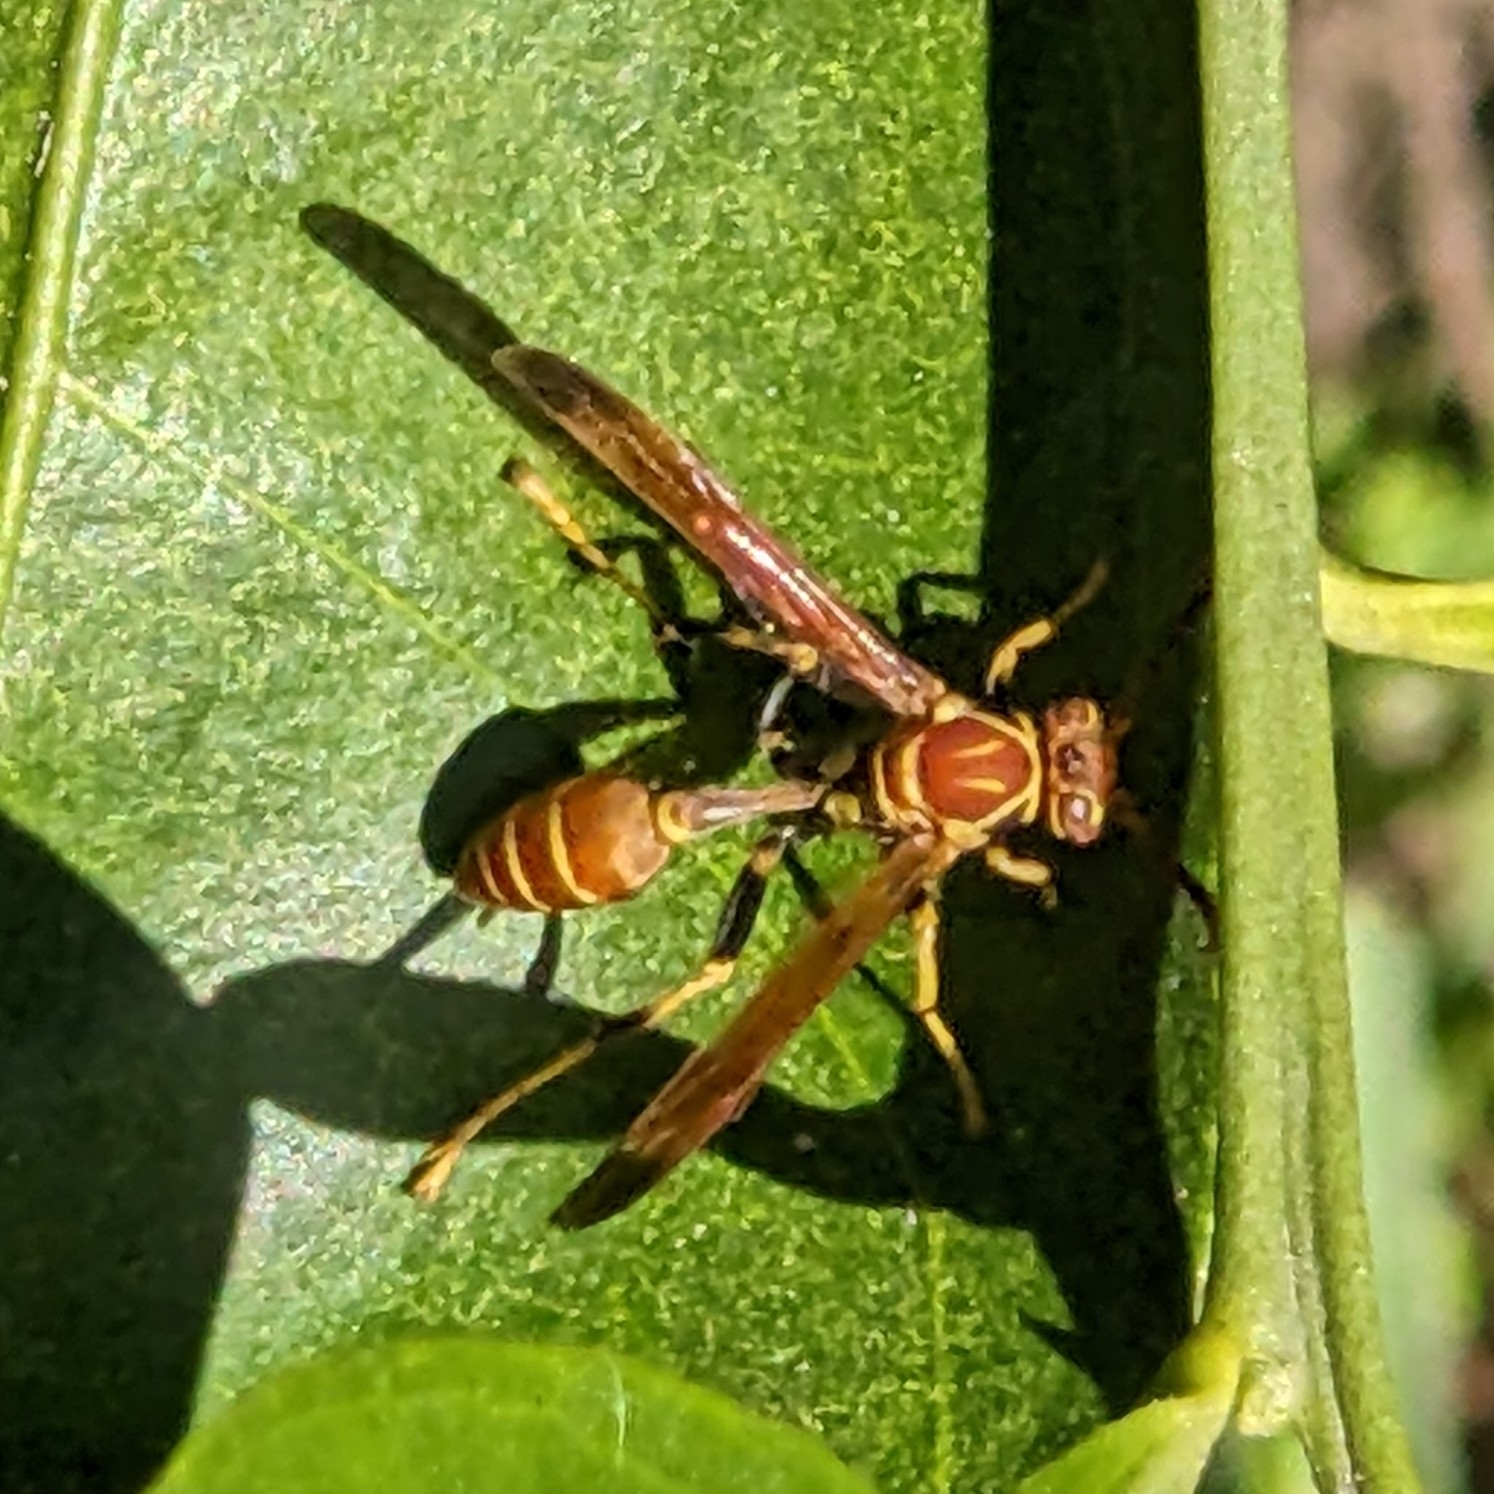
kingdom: Animalia
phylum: Arthropoda
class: Insecta
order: Hymenoptera
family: Vespidae
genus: Mischocyttarus
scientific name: Mischocyttarus mexicanus
